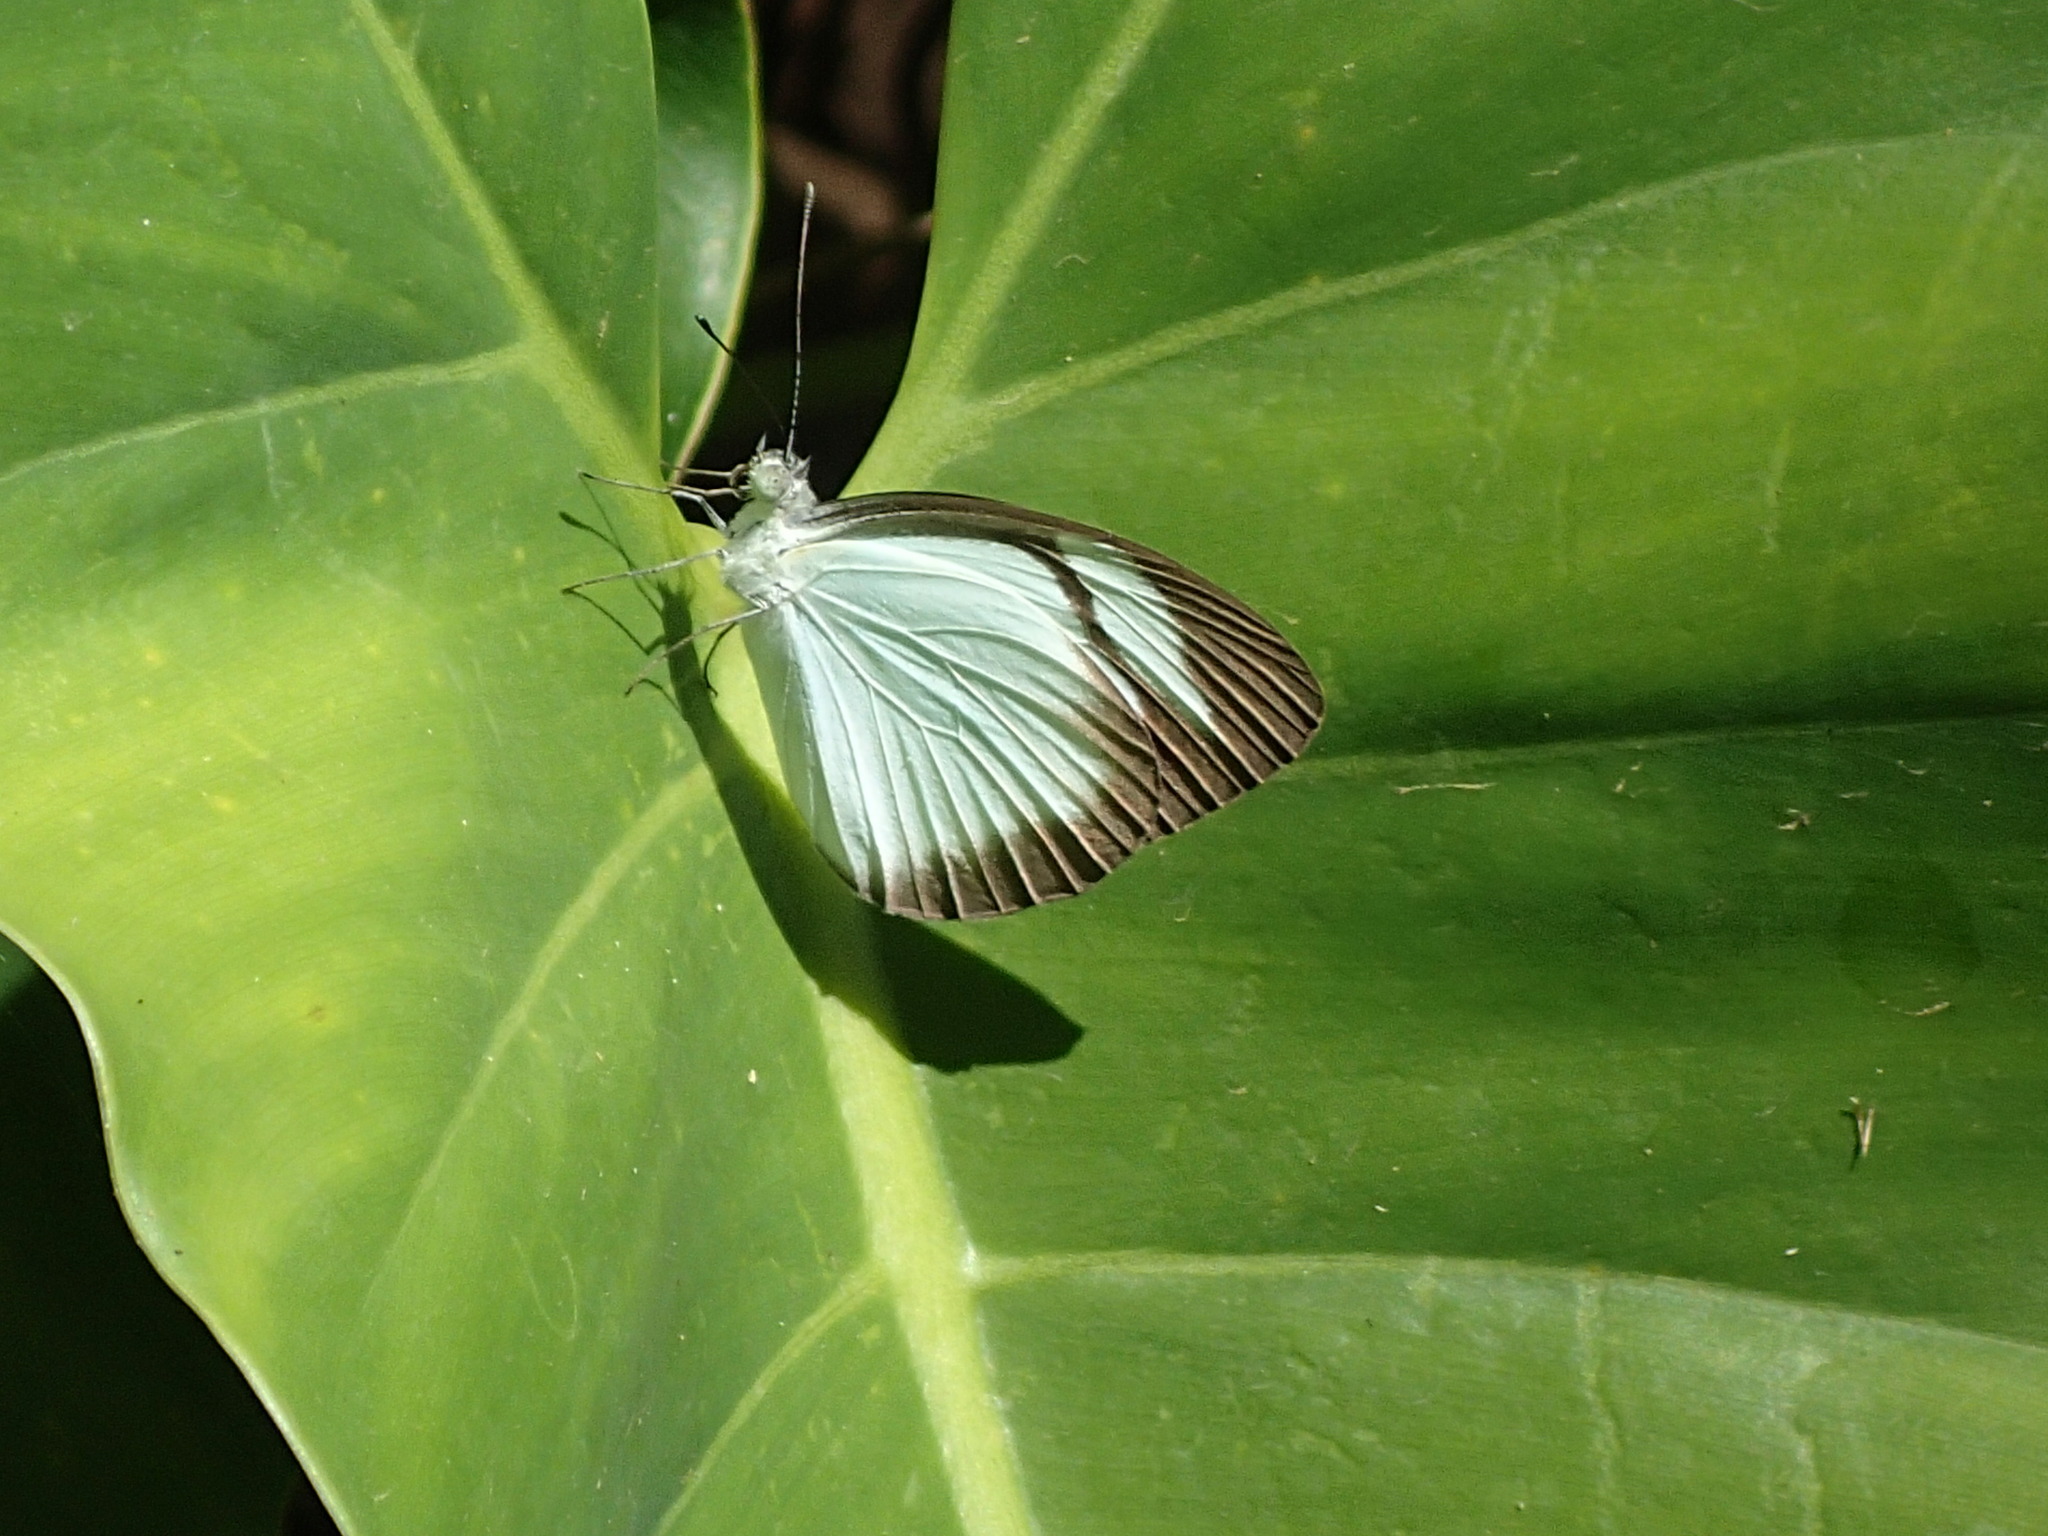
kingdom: Animalia
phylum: Arthropoda
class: Insecta
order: Lepidoptera
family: Pieridae
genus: Itaballia
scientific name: Itaballia demophile
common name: Cross-barred white
